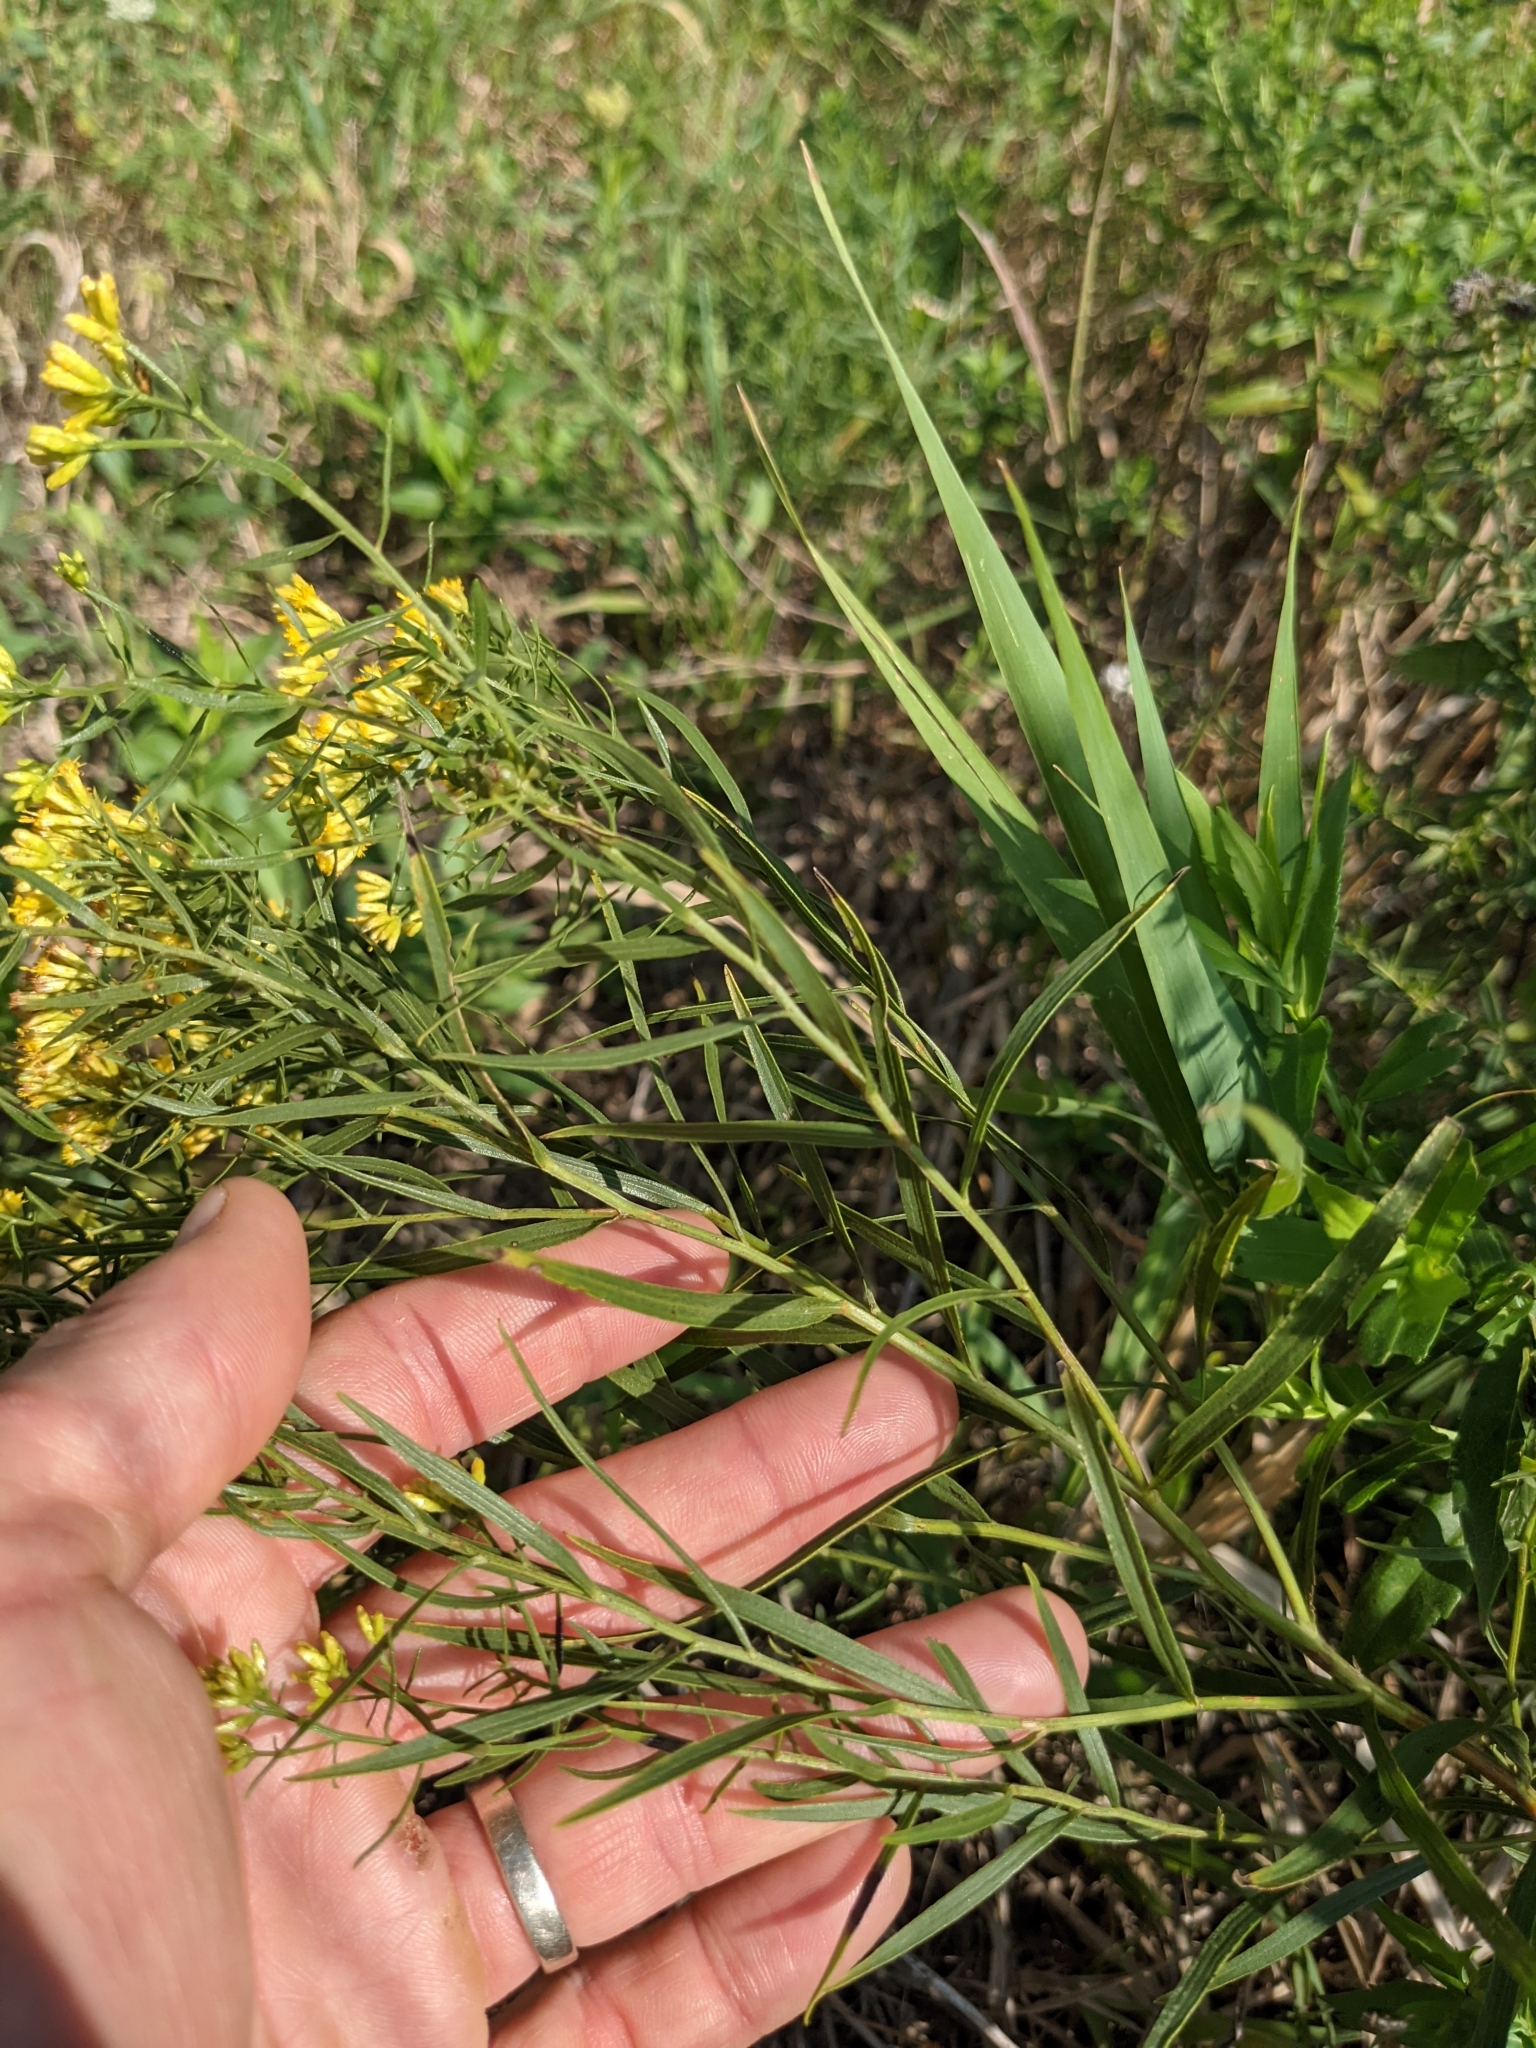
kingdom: Plantae
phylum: Tracheophyta
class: Magnoliopsida
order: Asterales
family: Asteraceae
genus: Euthamia
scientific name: Euthamia gymnospermoides
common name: Great plains goldentop
